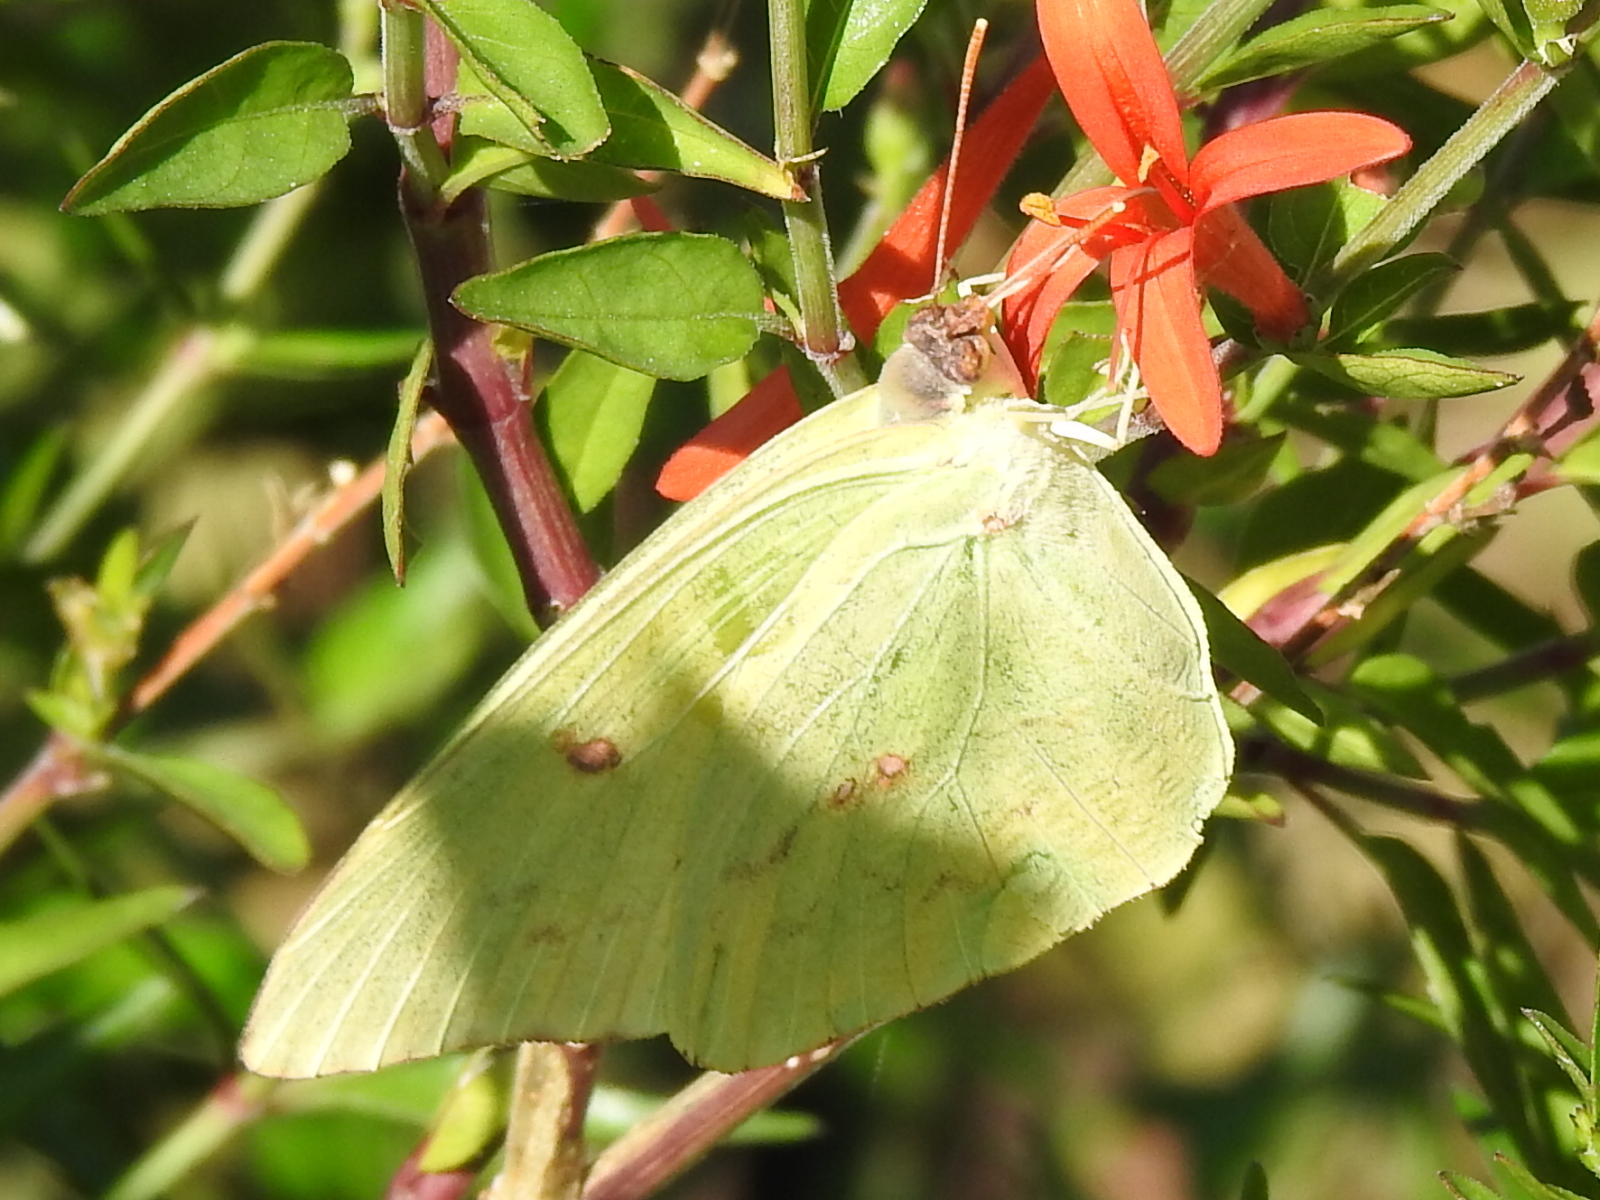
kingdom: Animalia
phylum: Arthropoda
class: Insecta
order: Lepidoptera
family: Pieridae
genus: Phoebis
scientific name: Phoebis sennae
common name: Cloudless sulphur
